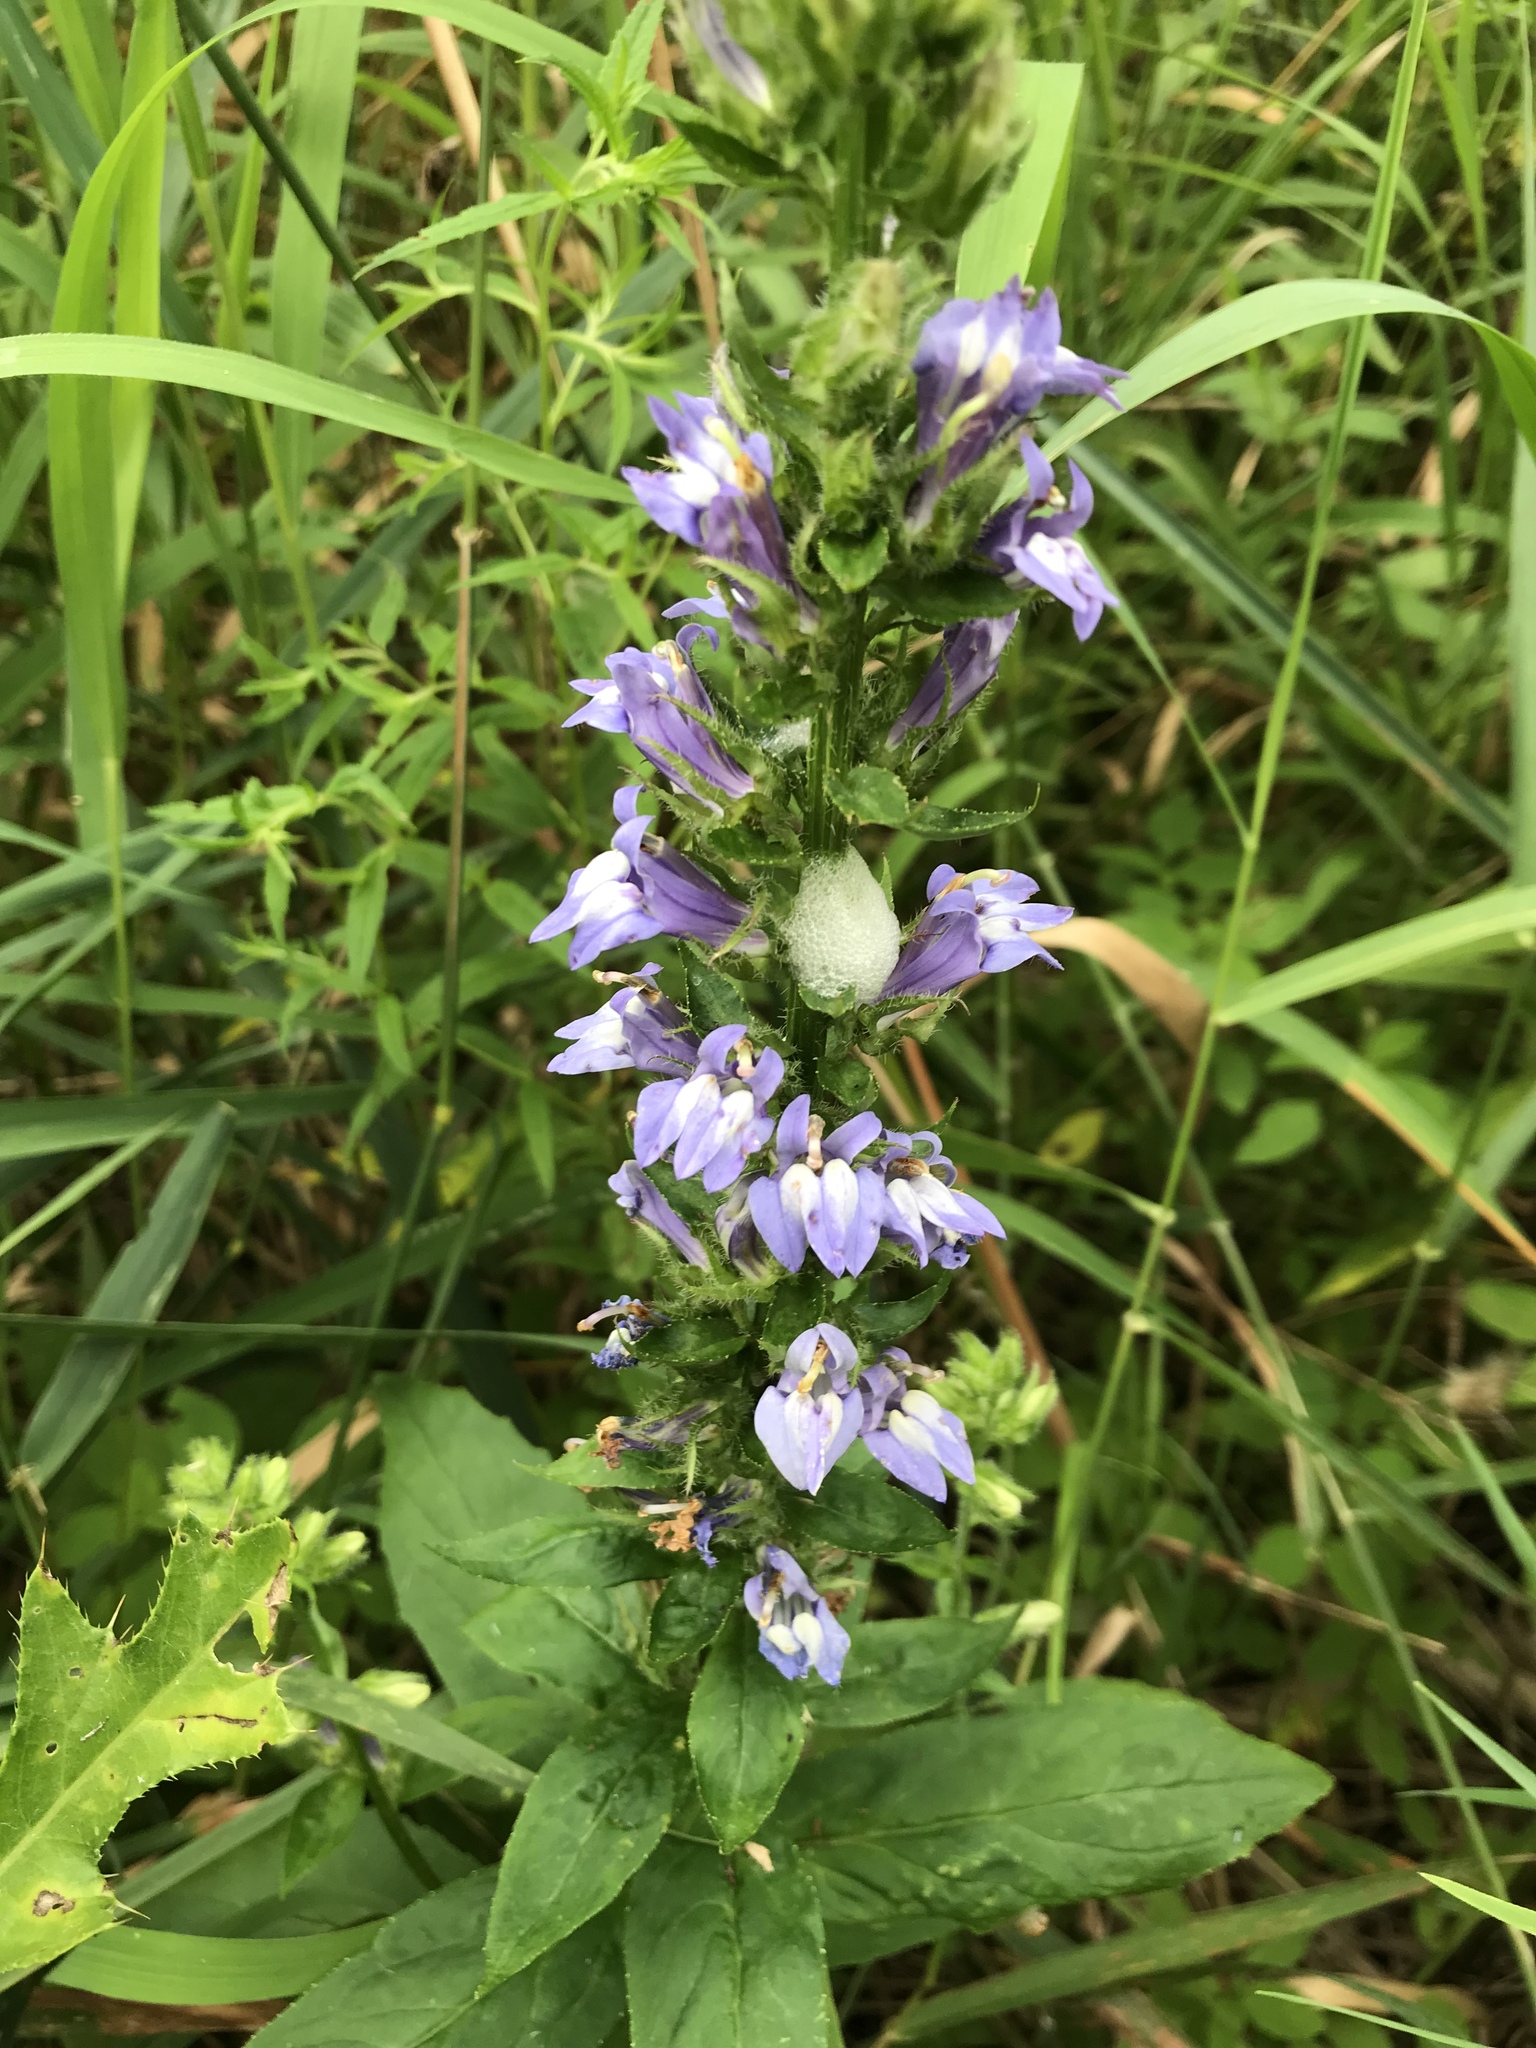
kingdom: Plantae
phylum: Tracheophyta
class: Magnoliopsida
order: Asterales
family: Campanulaceae
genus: Lobelia
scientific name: Lobelia siphilitica
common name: Great lobelia
